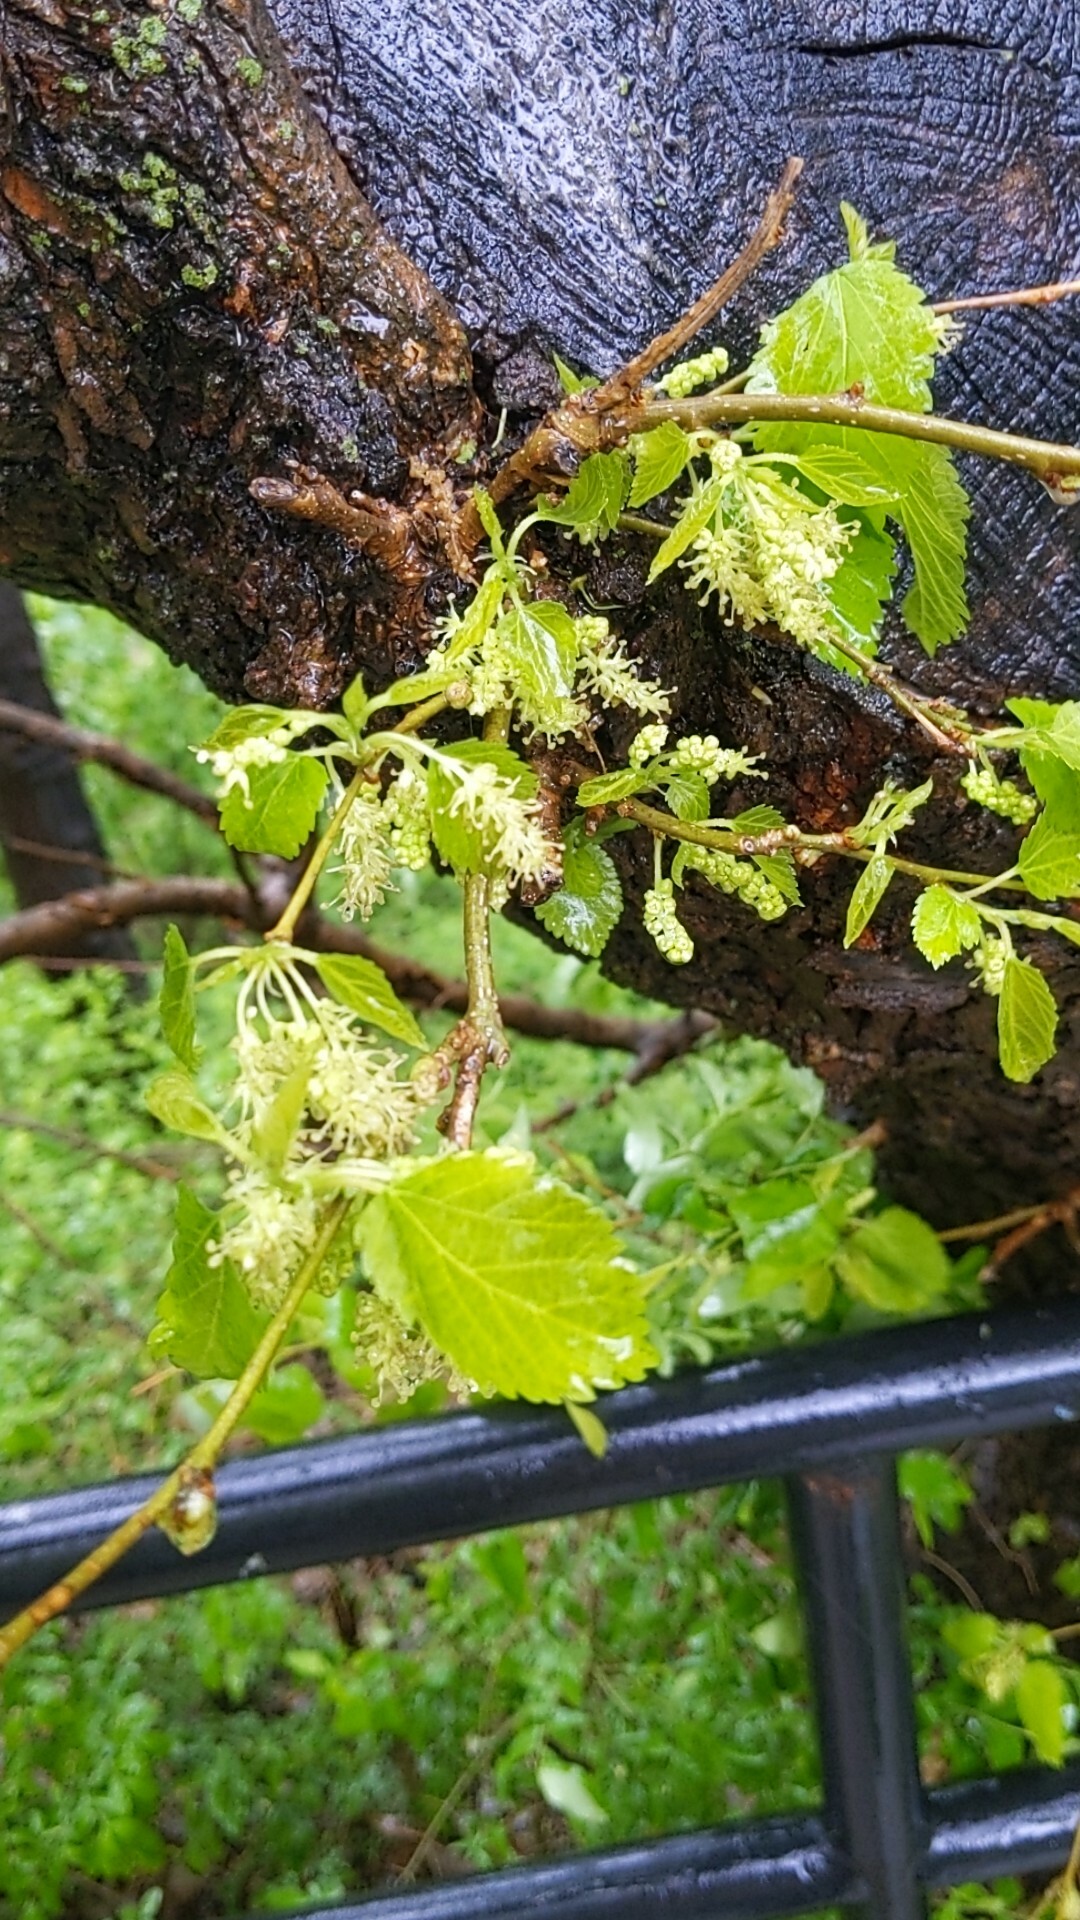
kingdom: Plantae
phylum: Tracheophyta
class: Magnoliopsida
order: Rosales
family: Moraceae
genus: Morus
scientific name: Morus alba
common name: White mulberry
